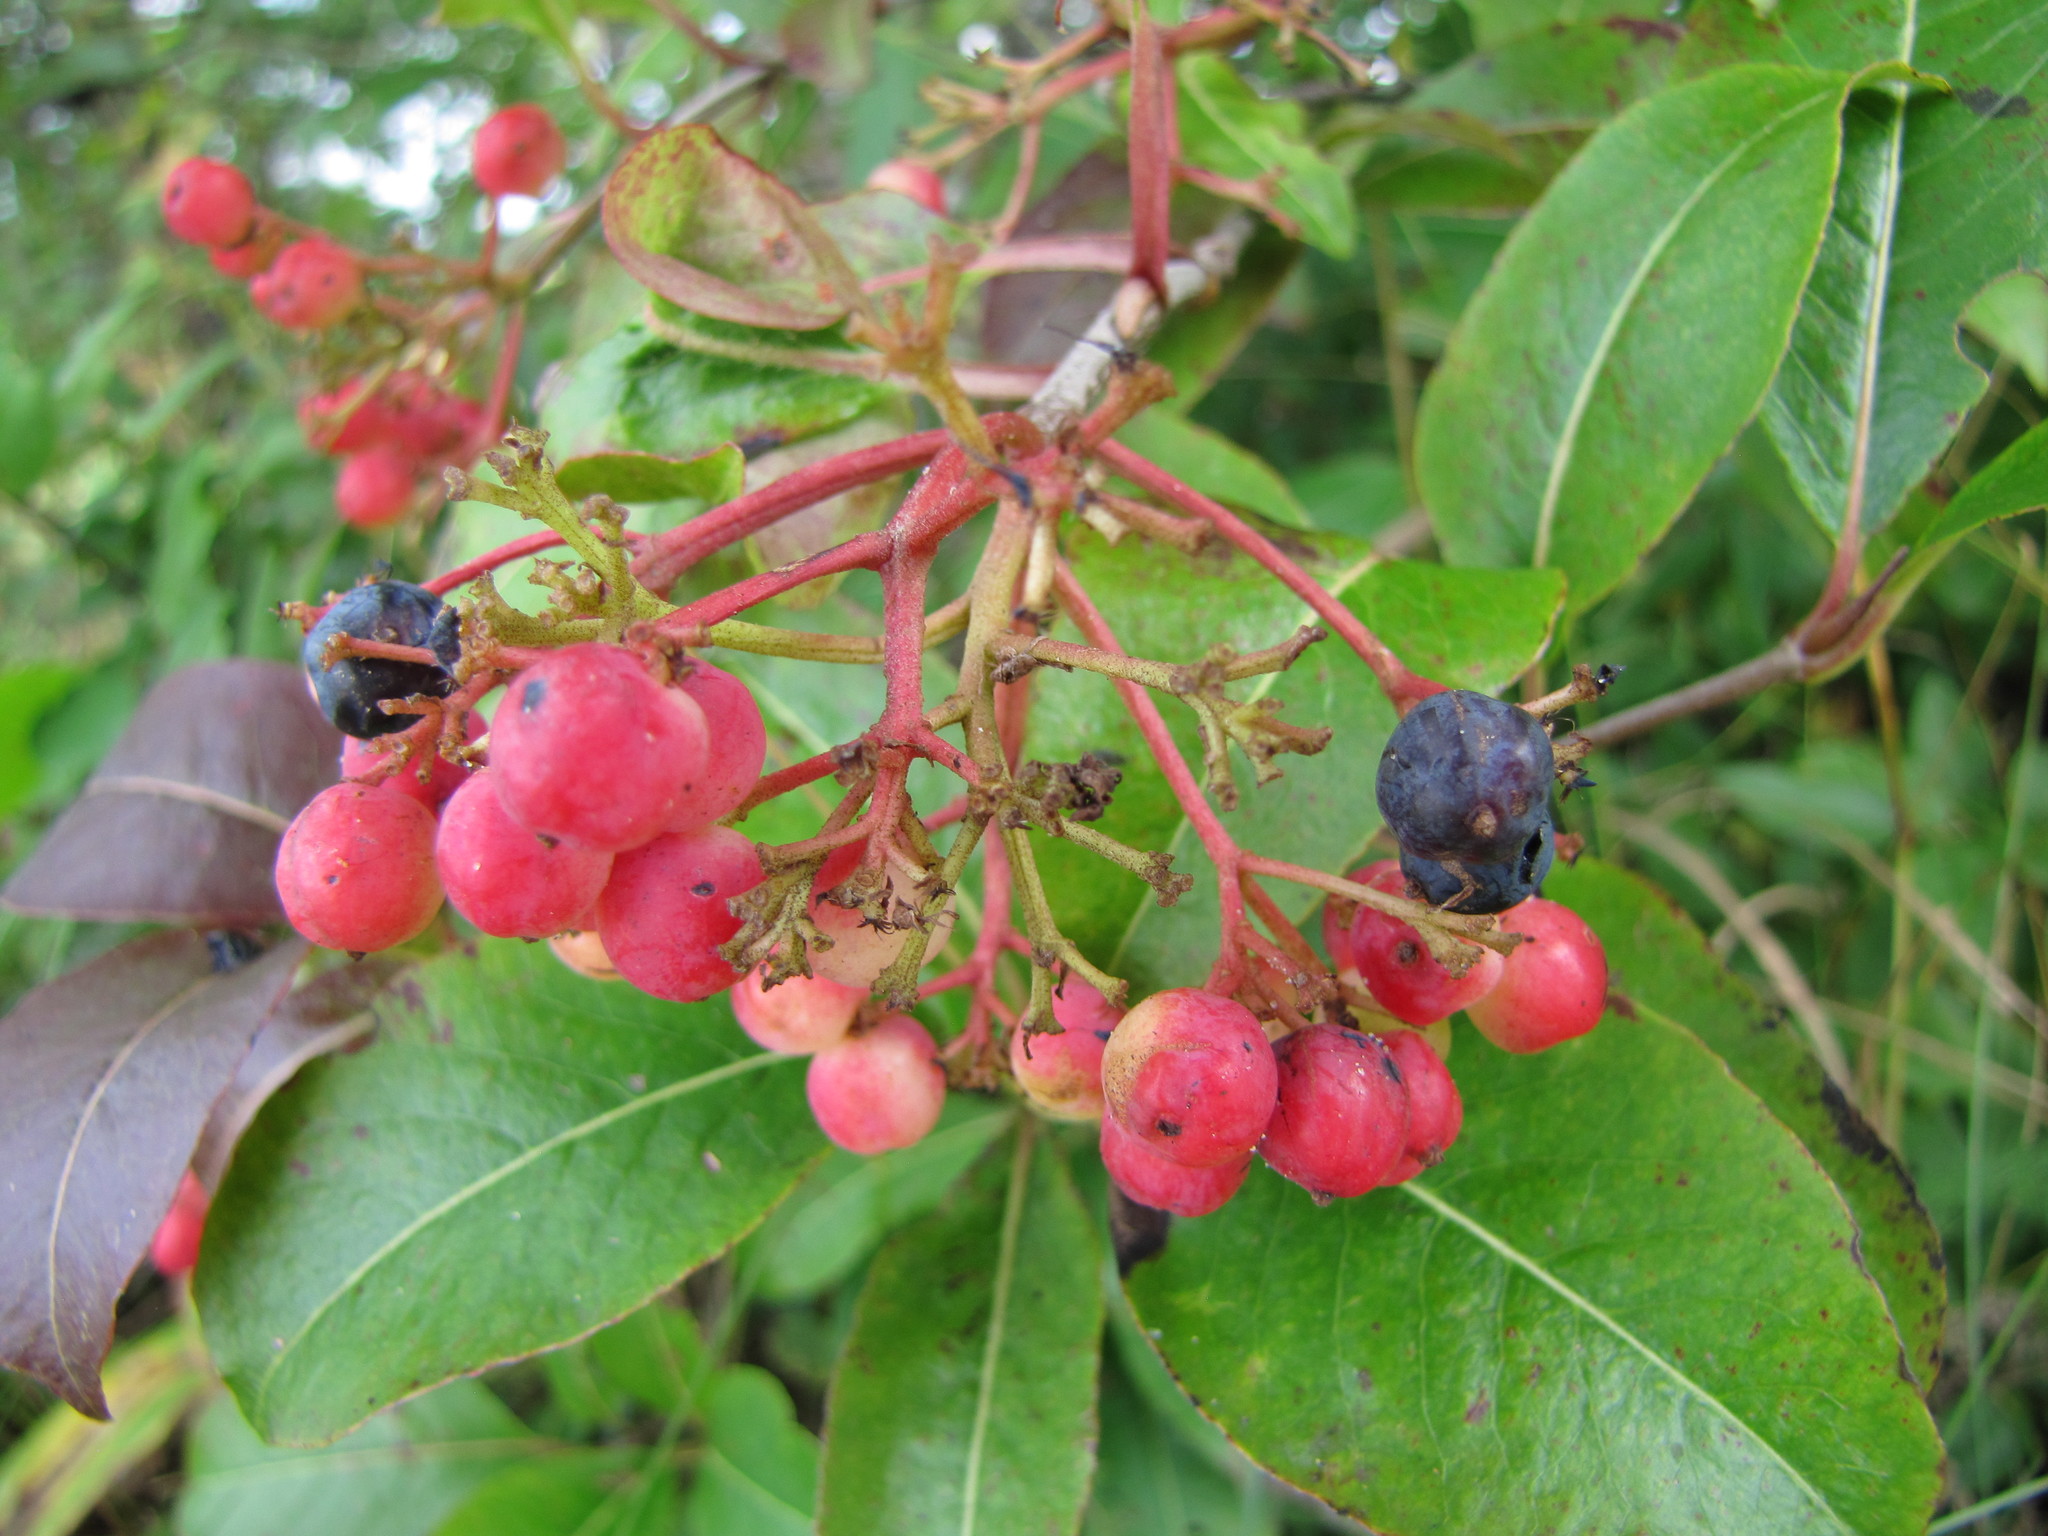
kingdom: Plantae
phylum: Tracheophyta
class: Magnoliopsida
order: Dipsacales
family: Viburnaceae
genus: Viburnum
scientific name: Viburnum cassinoides
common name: Swamp haw
